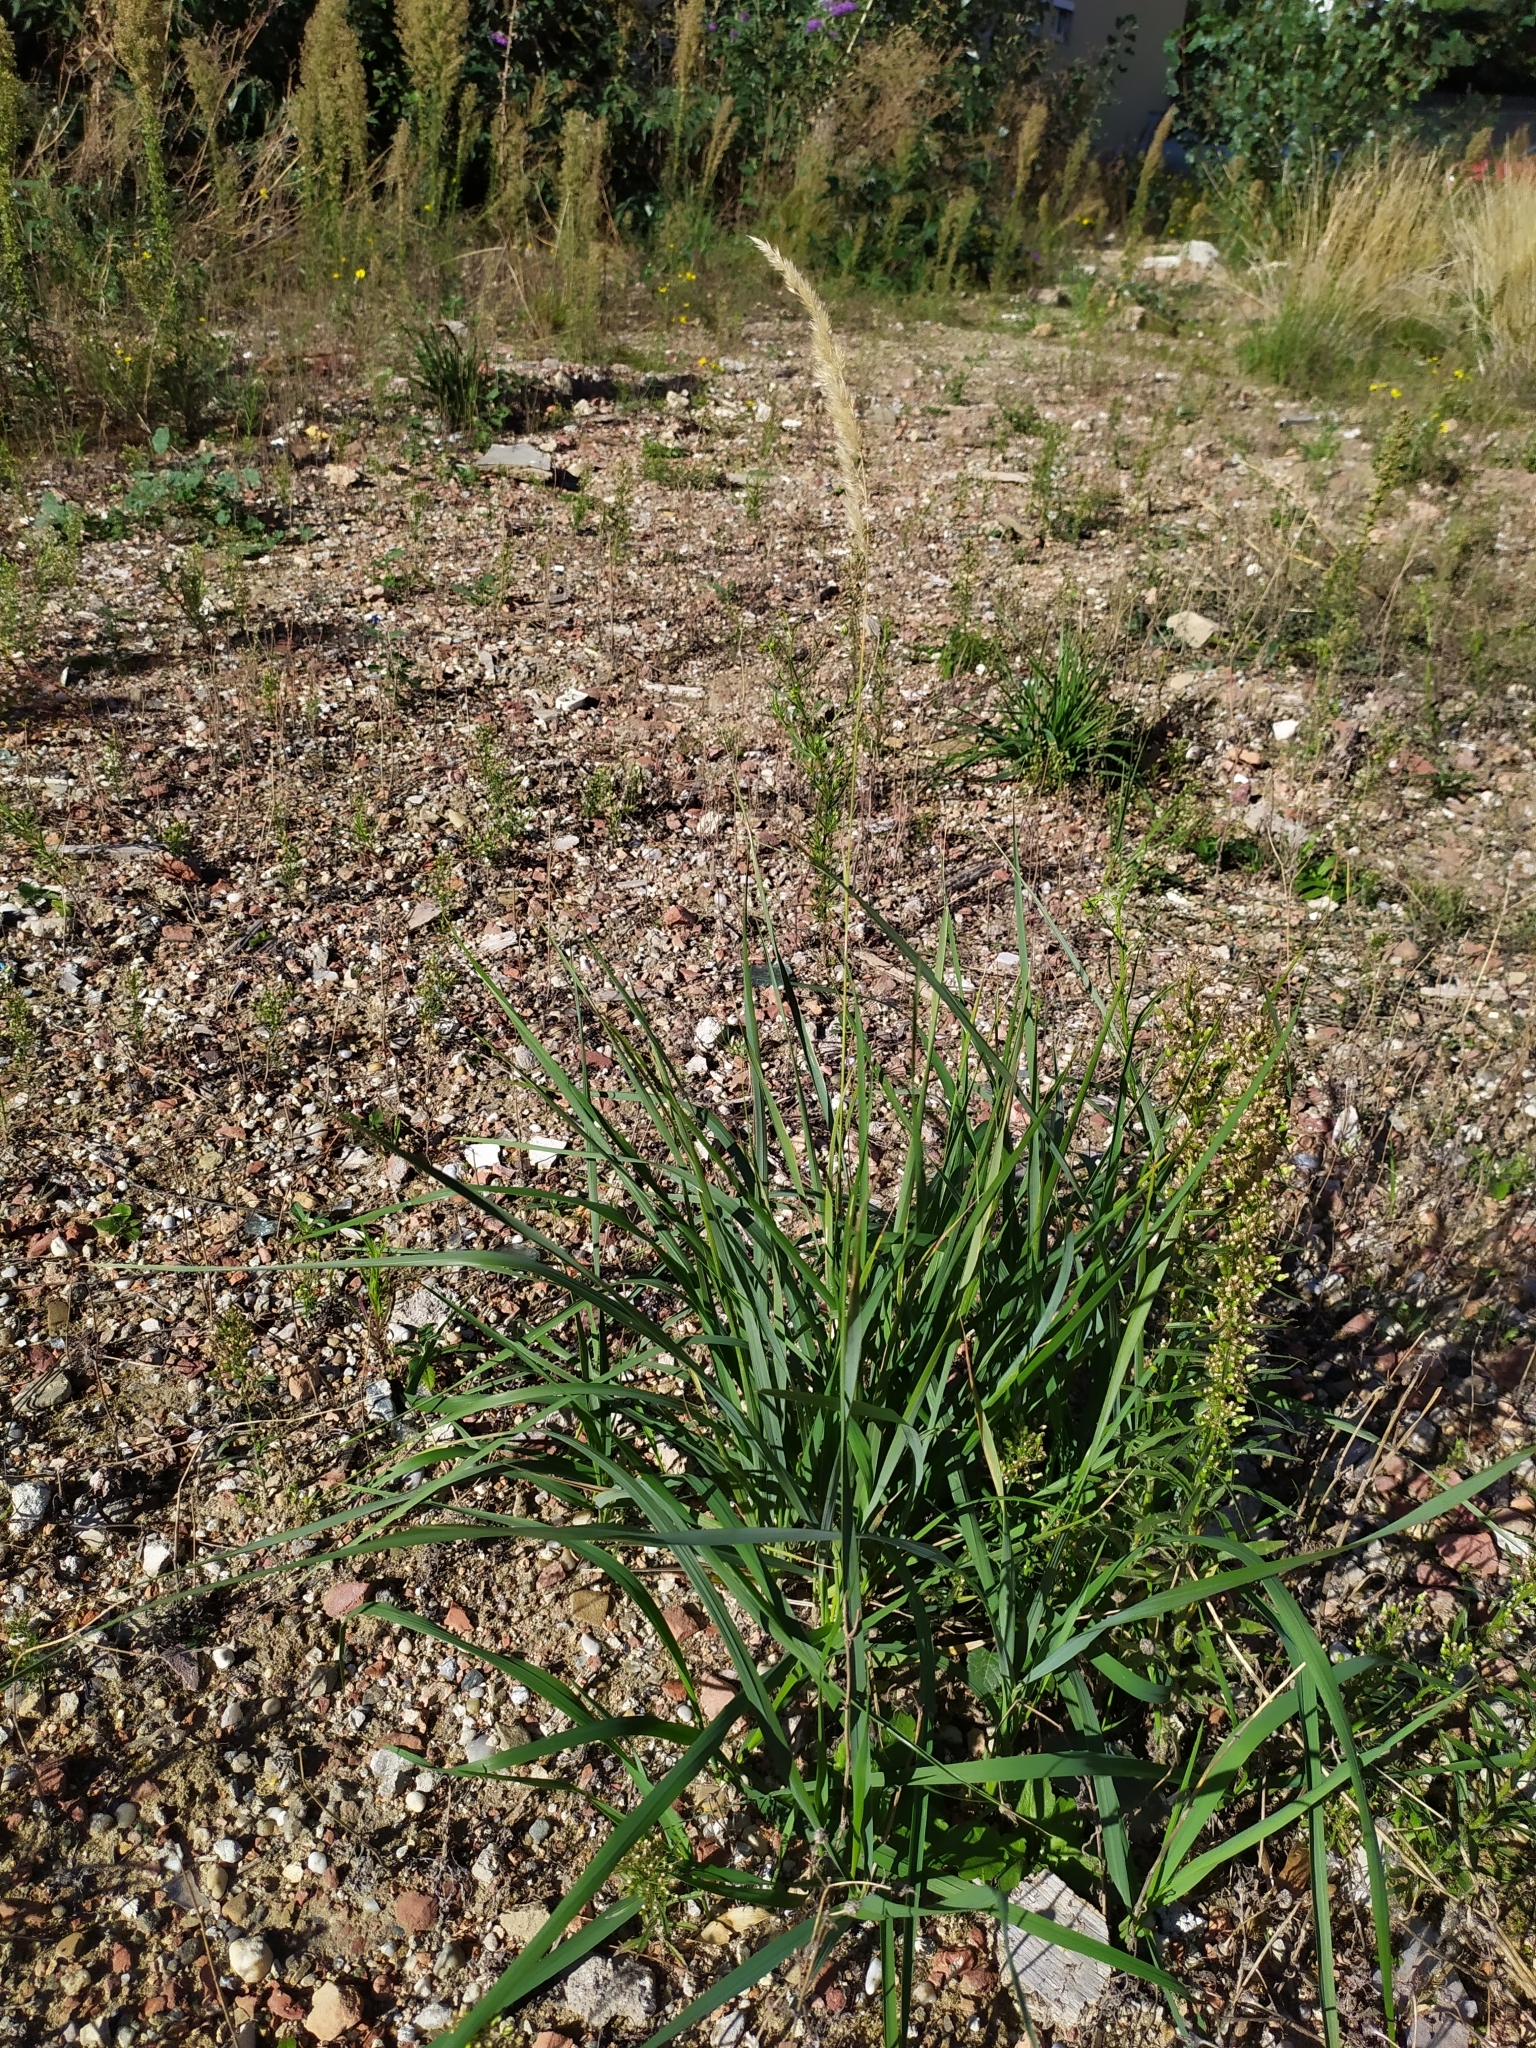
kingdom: Plantae
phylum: Tracheophyta
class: Liliopsida
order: Poales
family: Poaceae
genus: Calamagrostis
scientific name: Calamagrostis epigejos
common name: Wood small-reed
